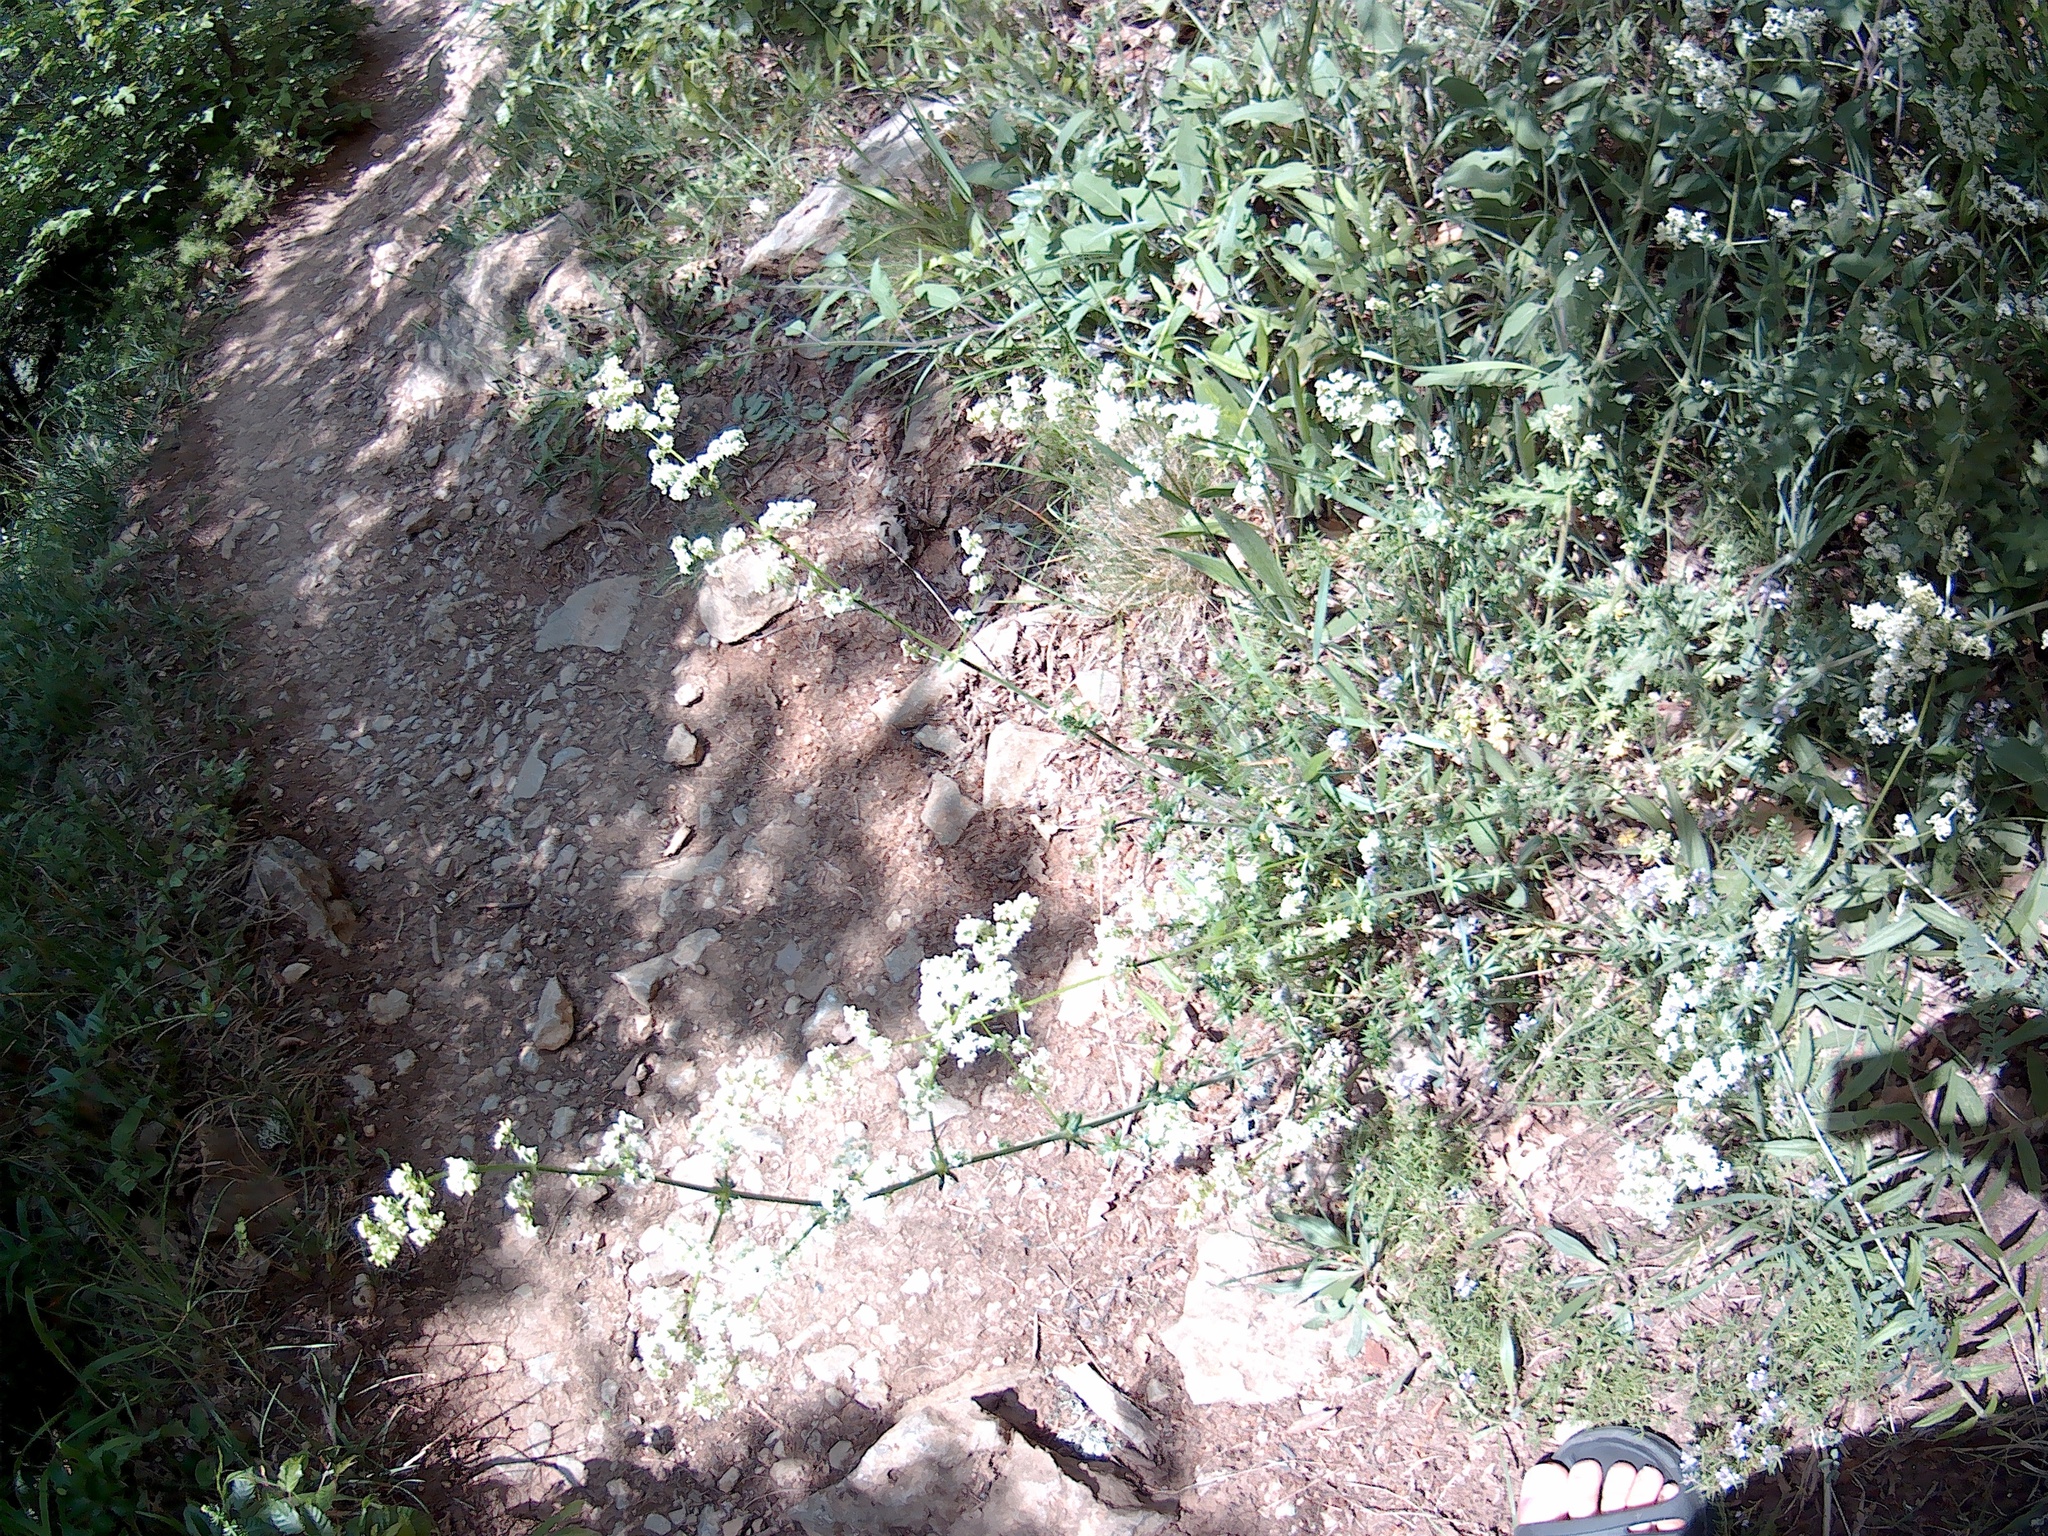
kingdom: Plantae
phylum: Tracheophyta
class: Magnoliopsida
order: Gentianales
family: Rubiaceae
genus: Galium
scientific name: Galium mollugo
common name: Hedge bedstraw
